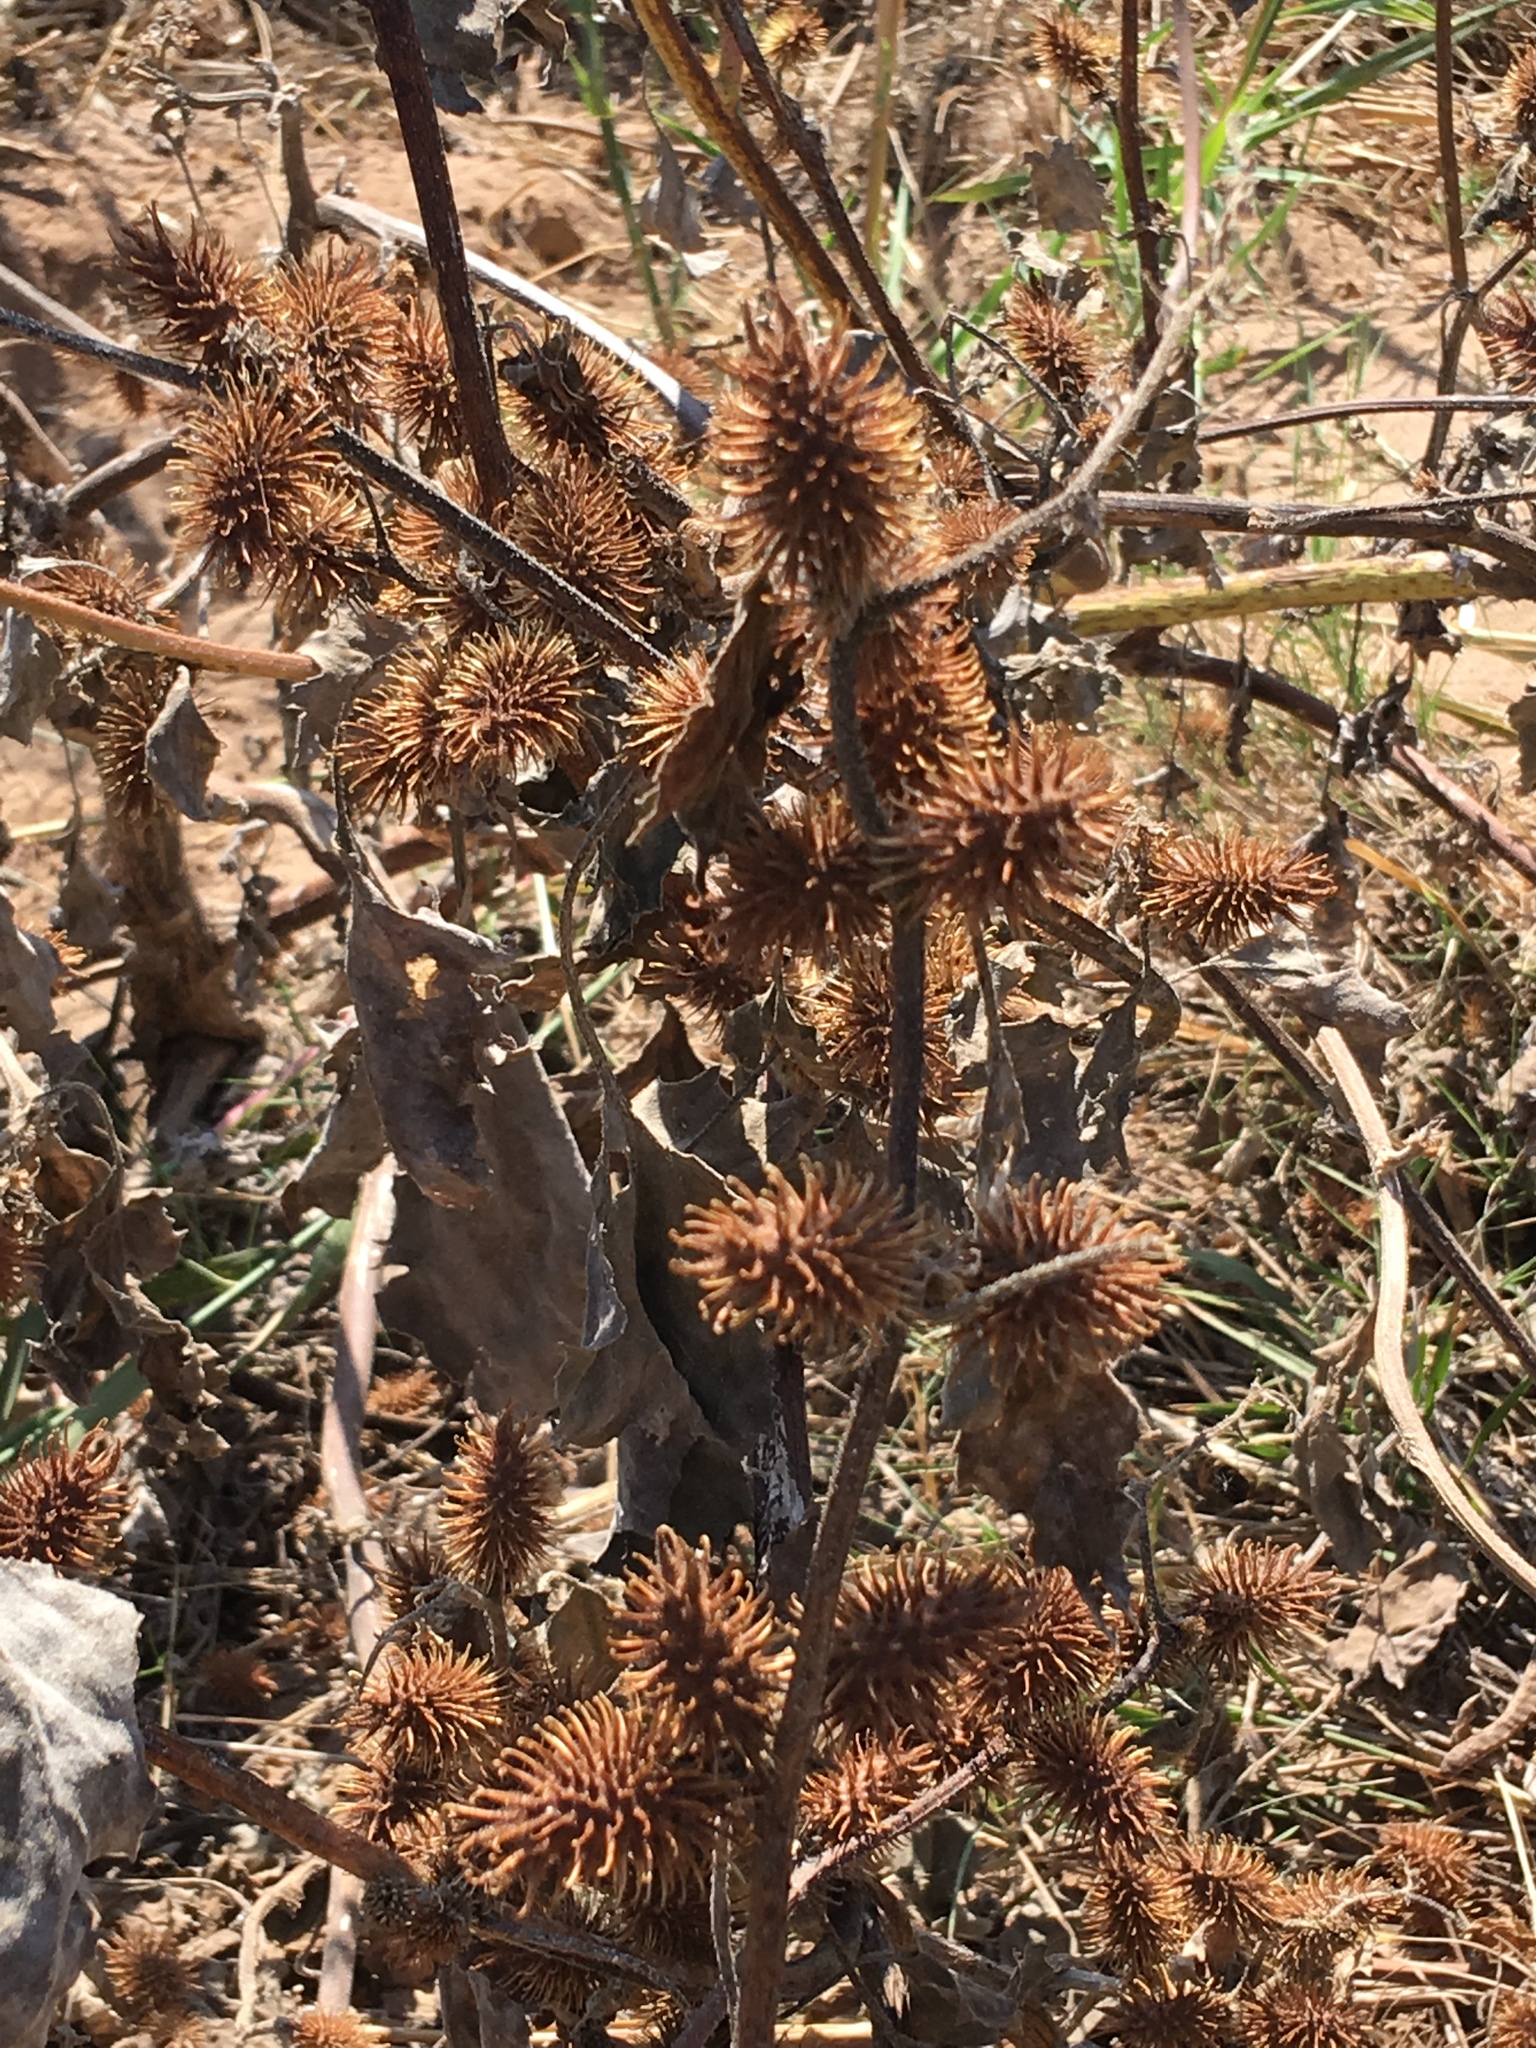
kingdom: Plantae
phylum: Tracheophyta
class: Magnoliopsida
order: Asterales
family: Asteraceae
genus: Xanthium
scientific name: Xanthium strumarium
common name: Rough cocklebur
